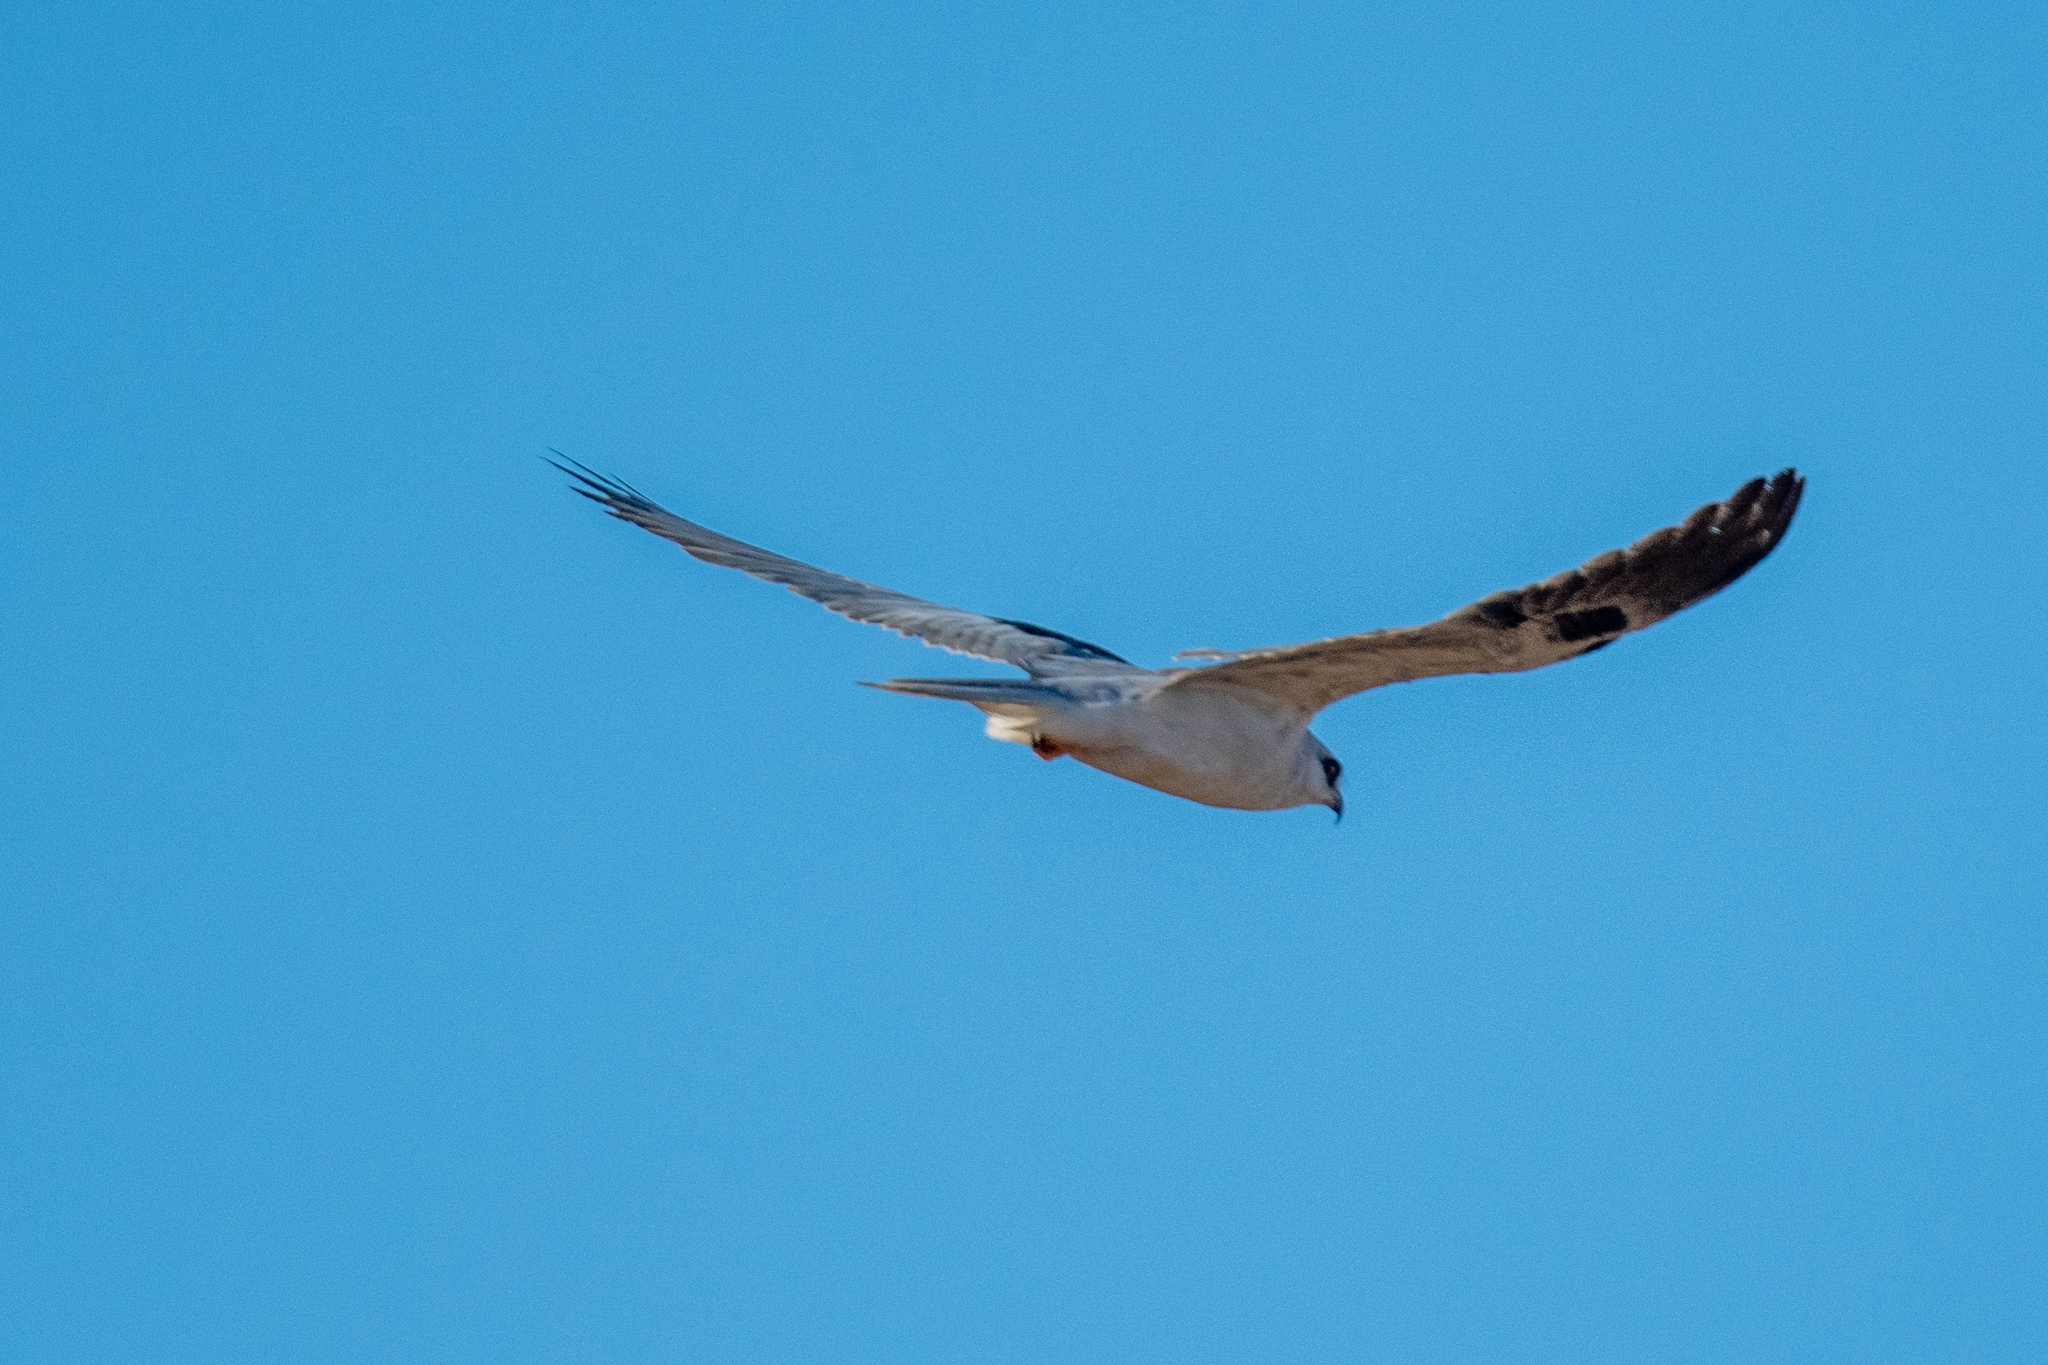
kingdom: Animalia
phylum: Chordata
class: Aves
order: Accipitriformes
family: Accipitridae
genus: Elanus
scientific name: Elanus leucurus
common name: White-tailed kite
